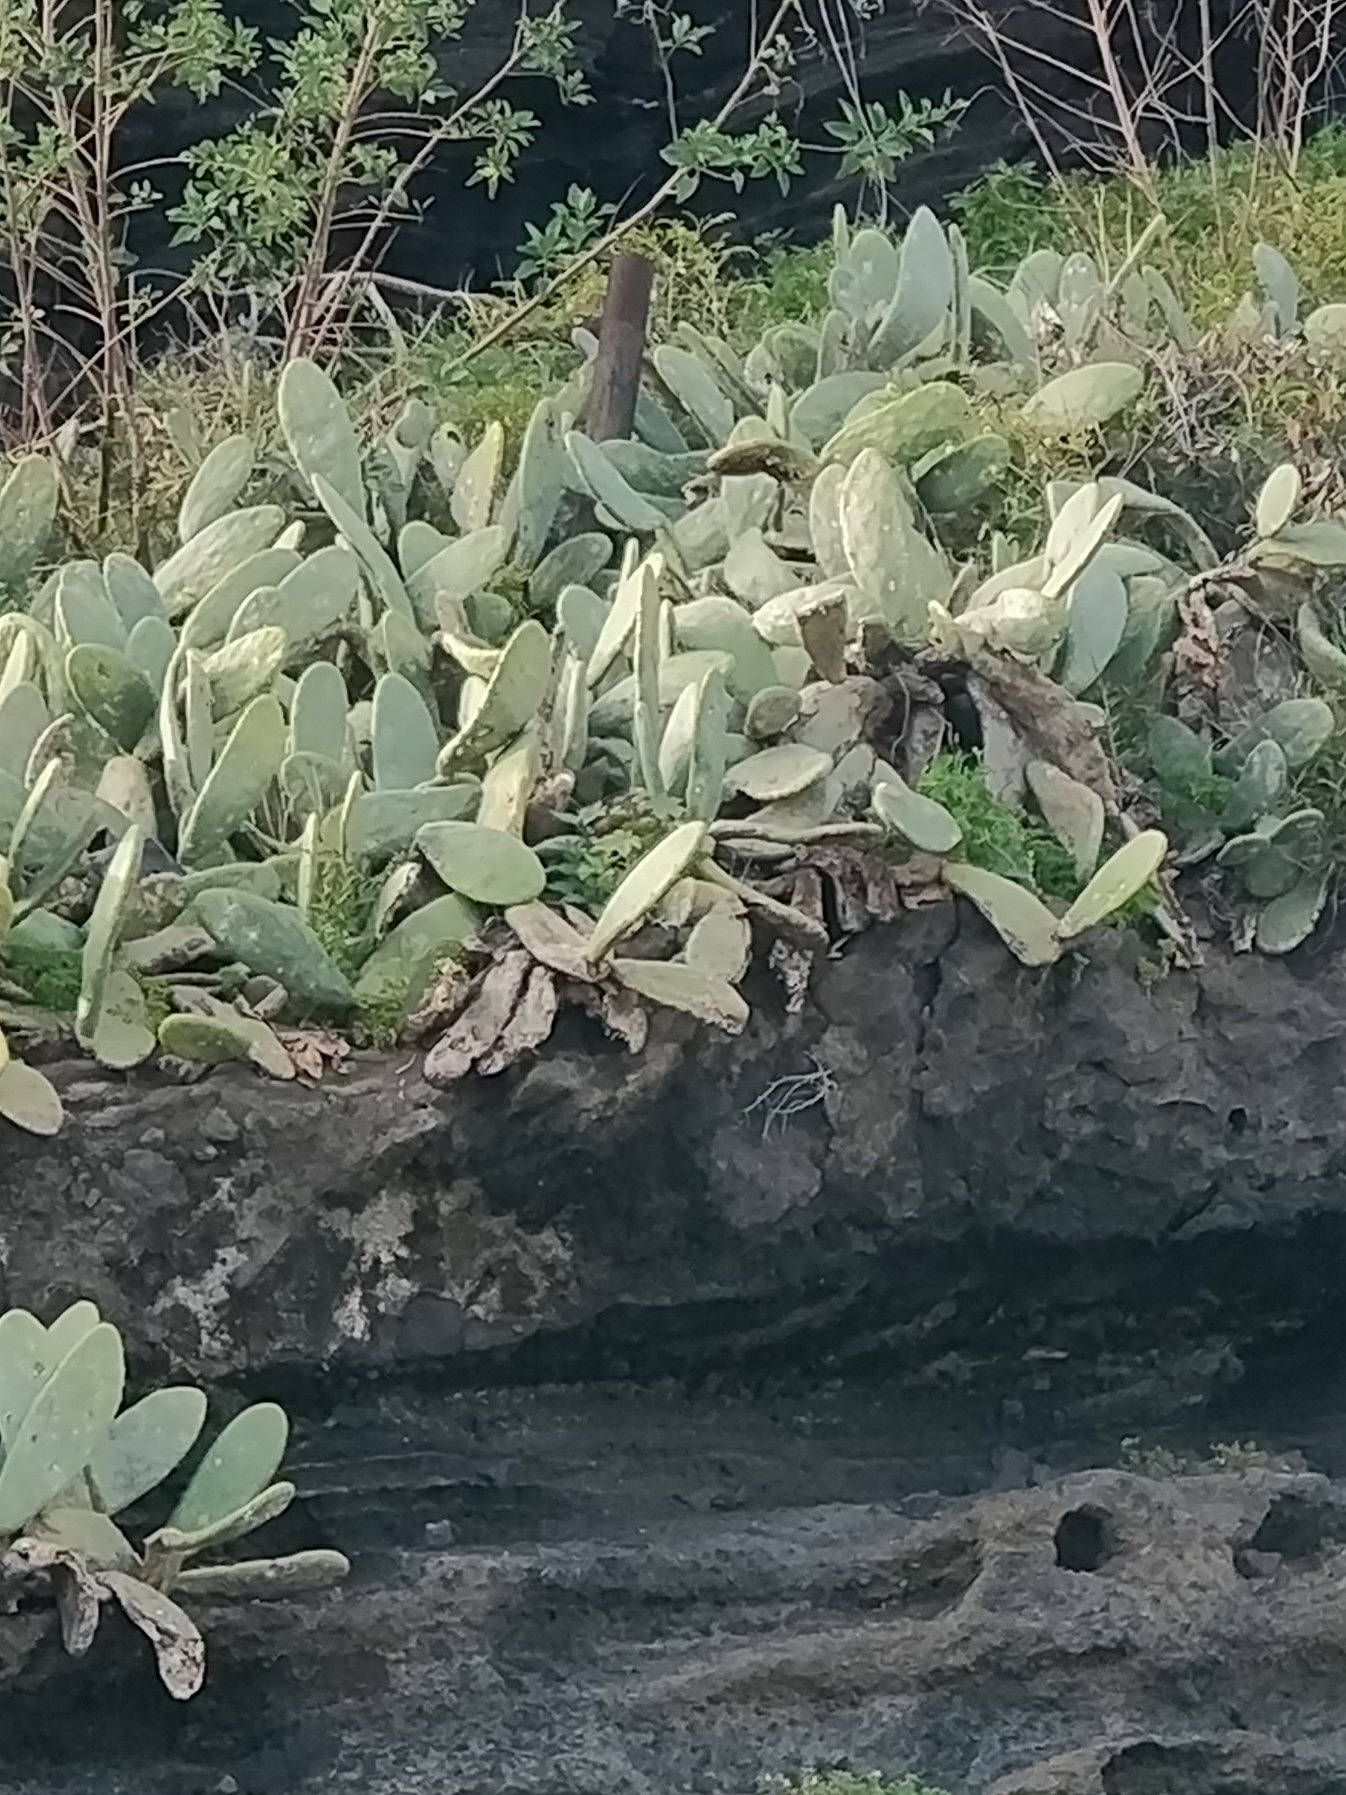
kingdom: Plantae
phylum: Tracheophyta
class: Magnoliopsida
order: Caryophyllales
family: Cactaceae
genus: Opuntia
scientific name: Opuntia ficus-indica
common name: Barbary fig
